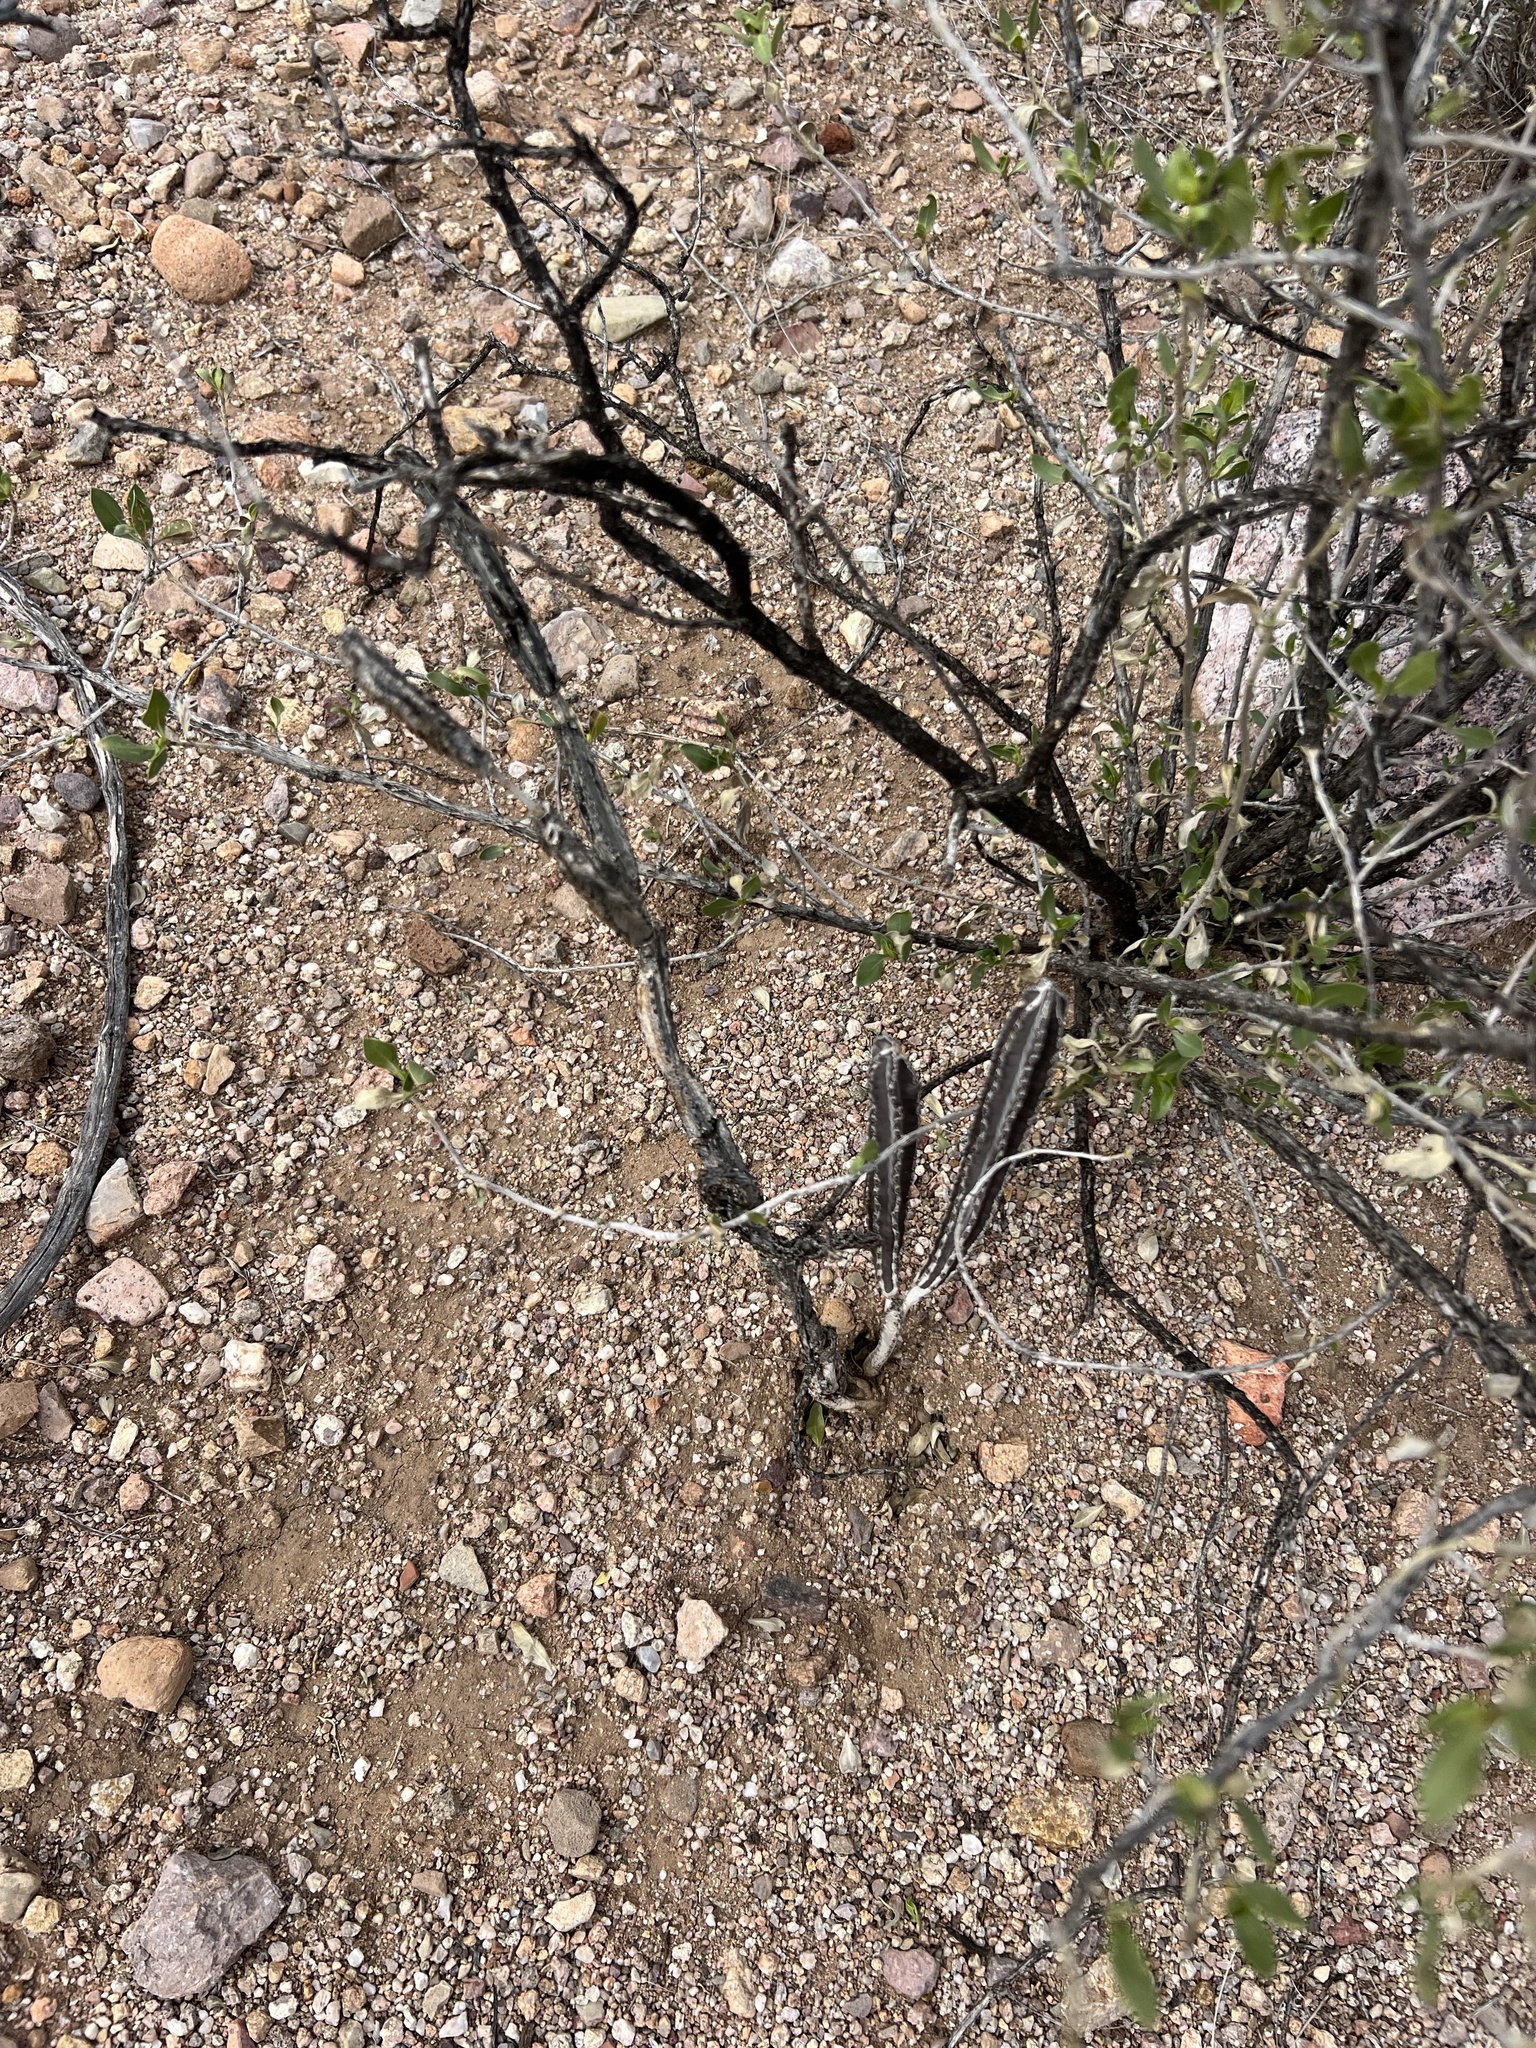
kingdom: Plantae
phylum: Tracheophyta
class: Magnoliopsida
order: Caryophyllales
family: Cactaceae
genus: Peniocereus
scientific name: Peniocereus greggii
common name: Desert night-blooming cereus
